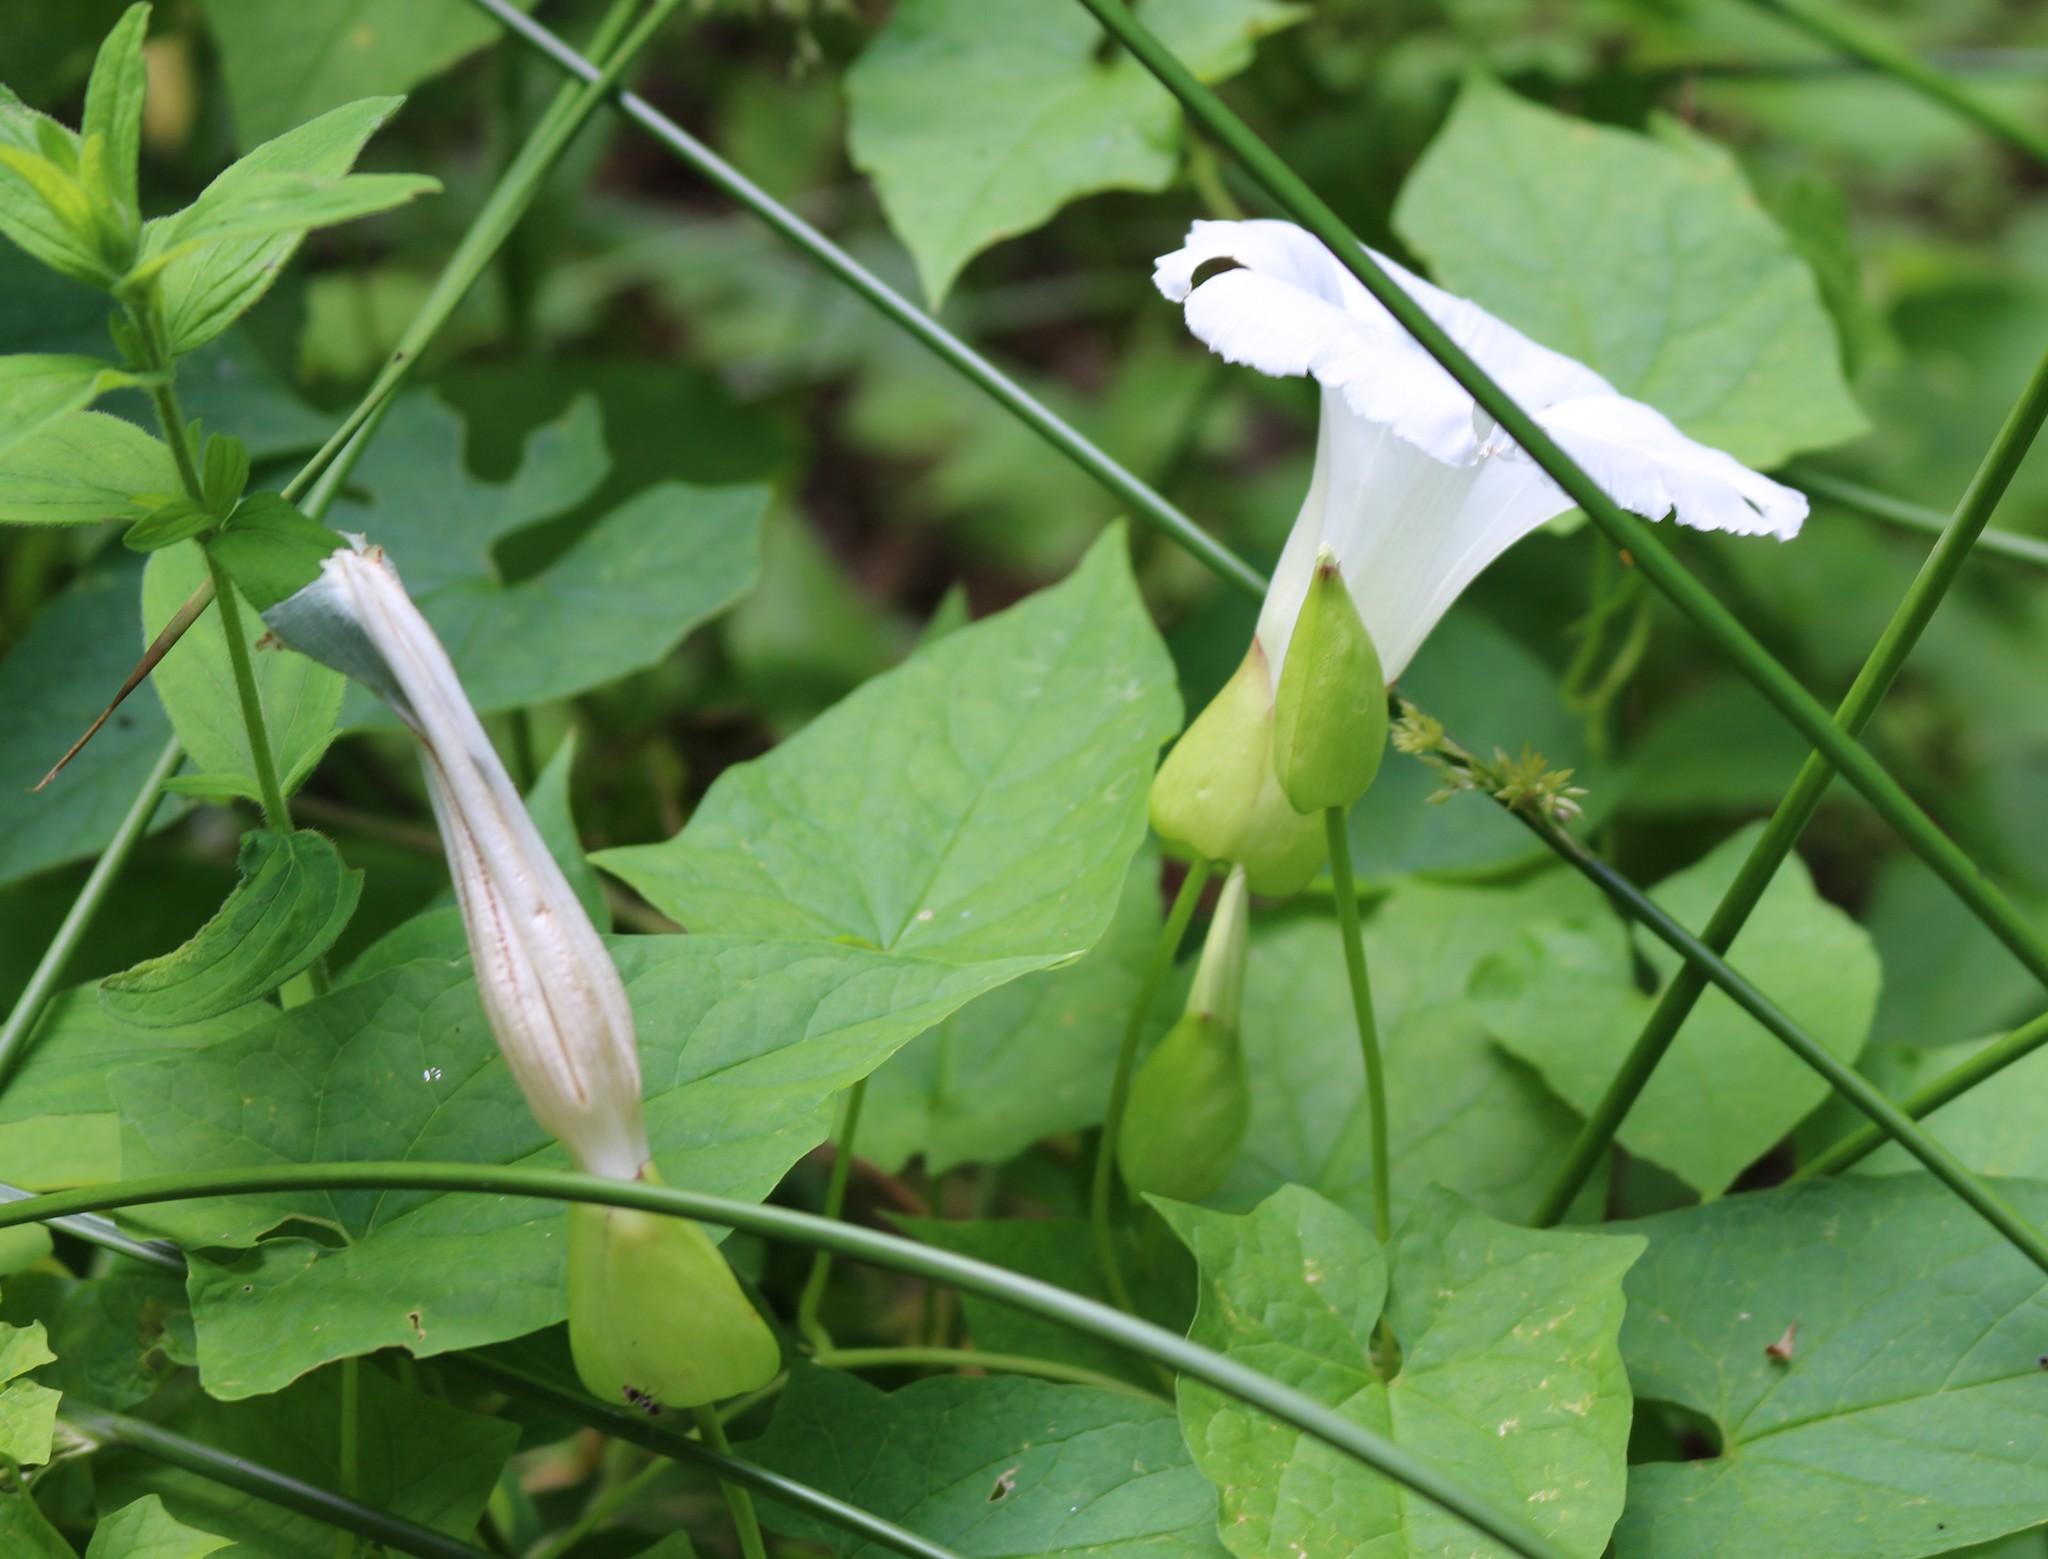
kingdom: Plantae
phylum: Tracheophyta
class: Magnoliopsida
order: Solanales
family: Convolvulaceae
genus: Calystegia
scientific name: Calystegia silvatica
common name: Large bindweed
